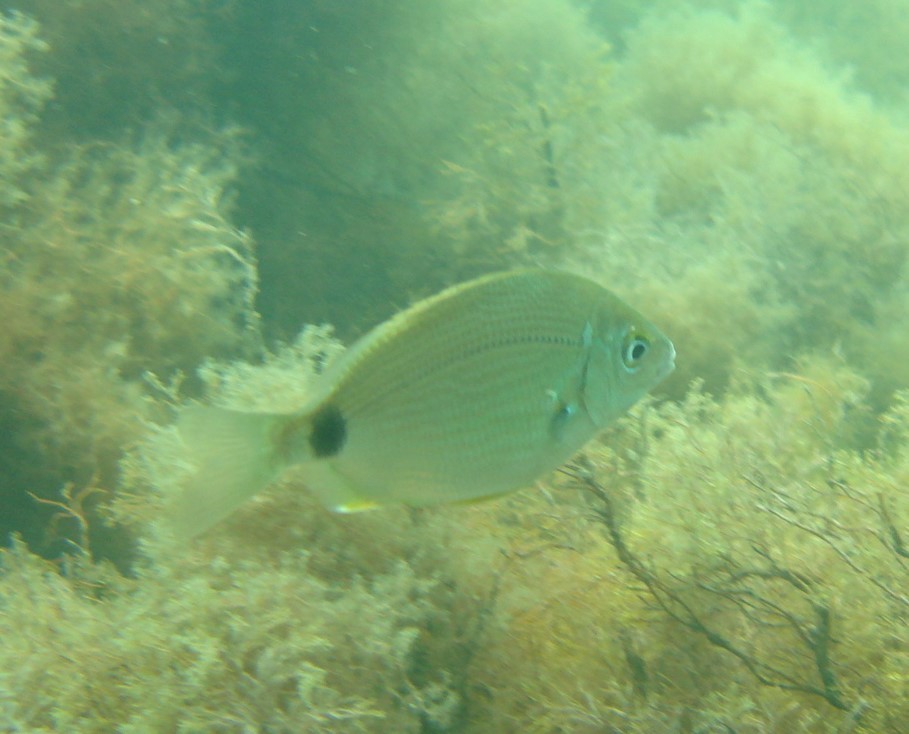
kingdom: Animalia
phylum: Chordata
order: Perciformes
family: Sparidae
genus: Diplodus
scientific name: Diplodus annularis
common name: Annular seabream
